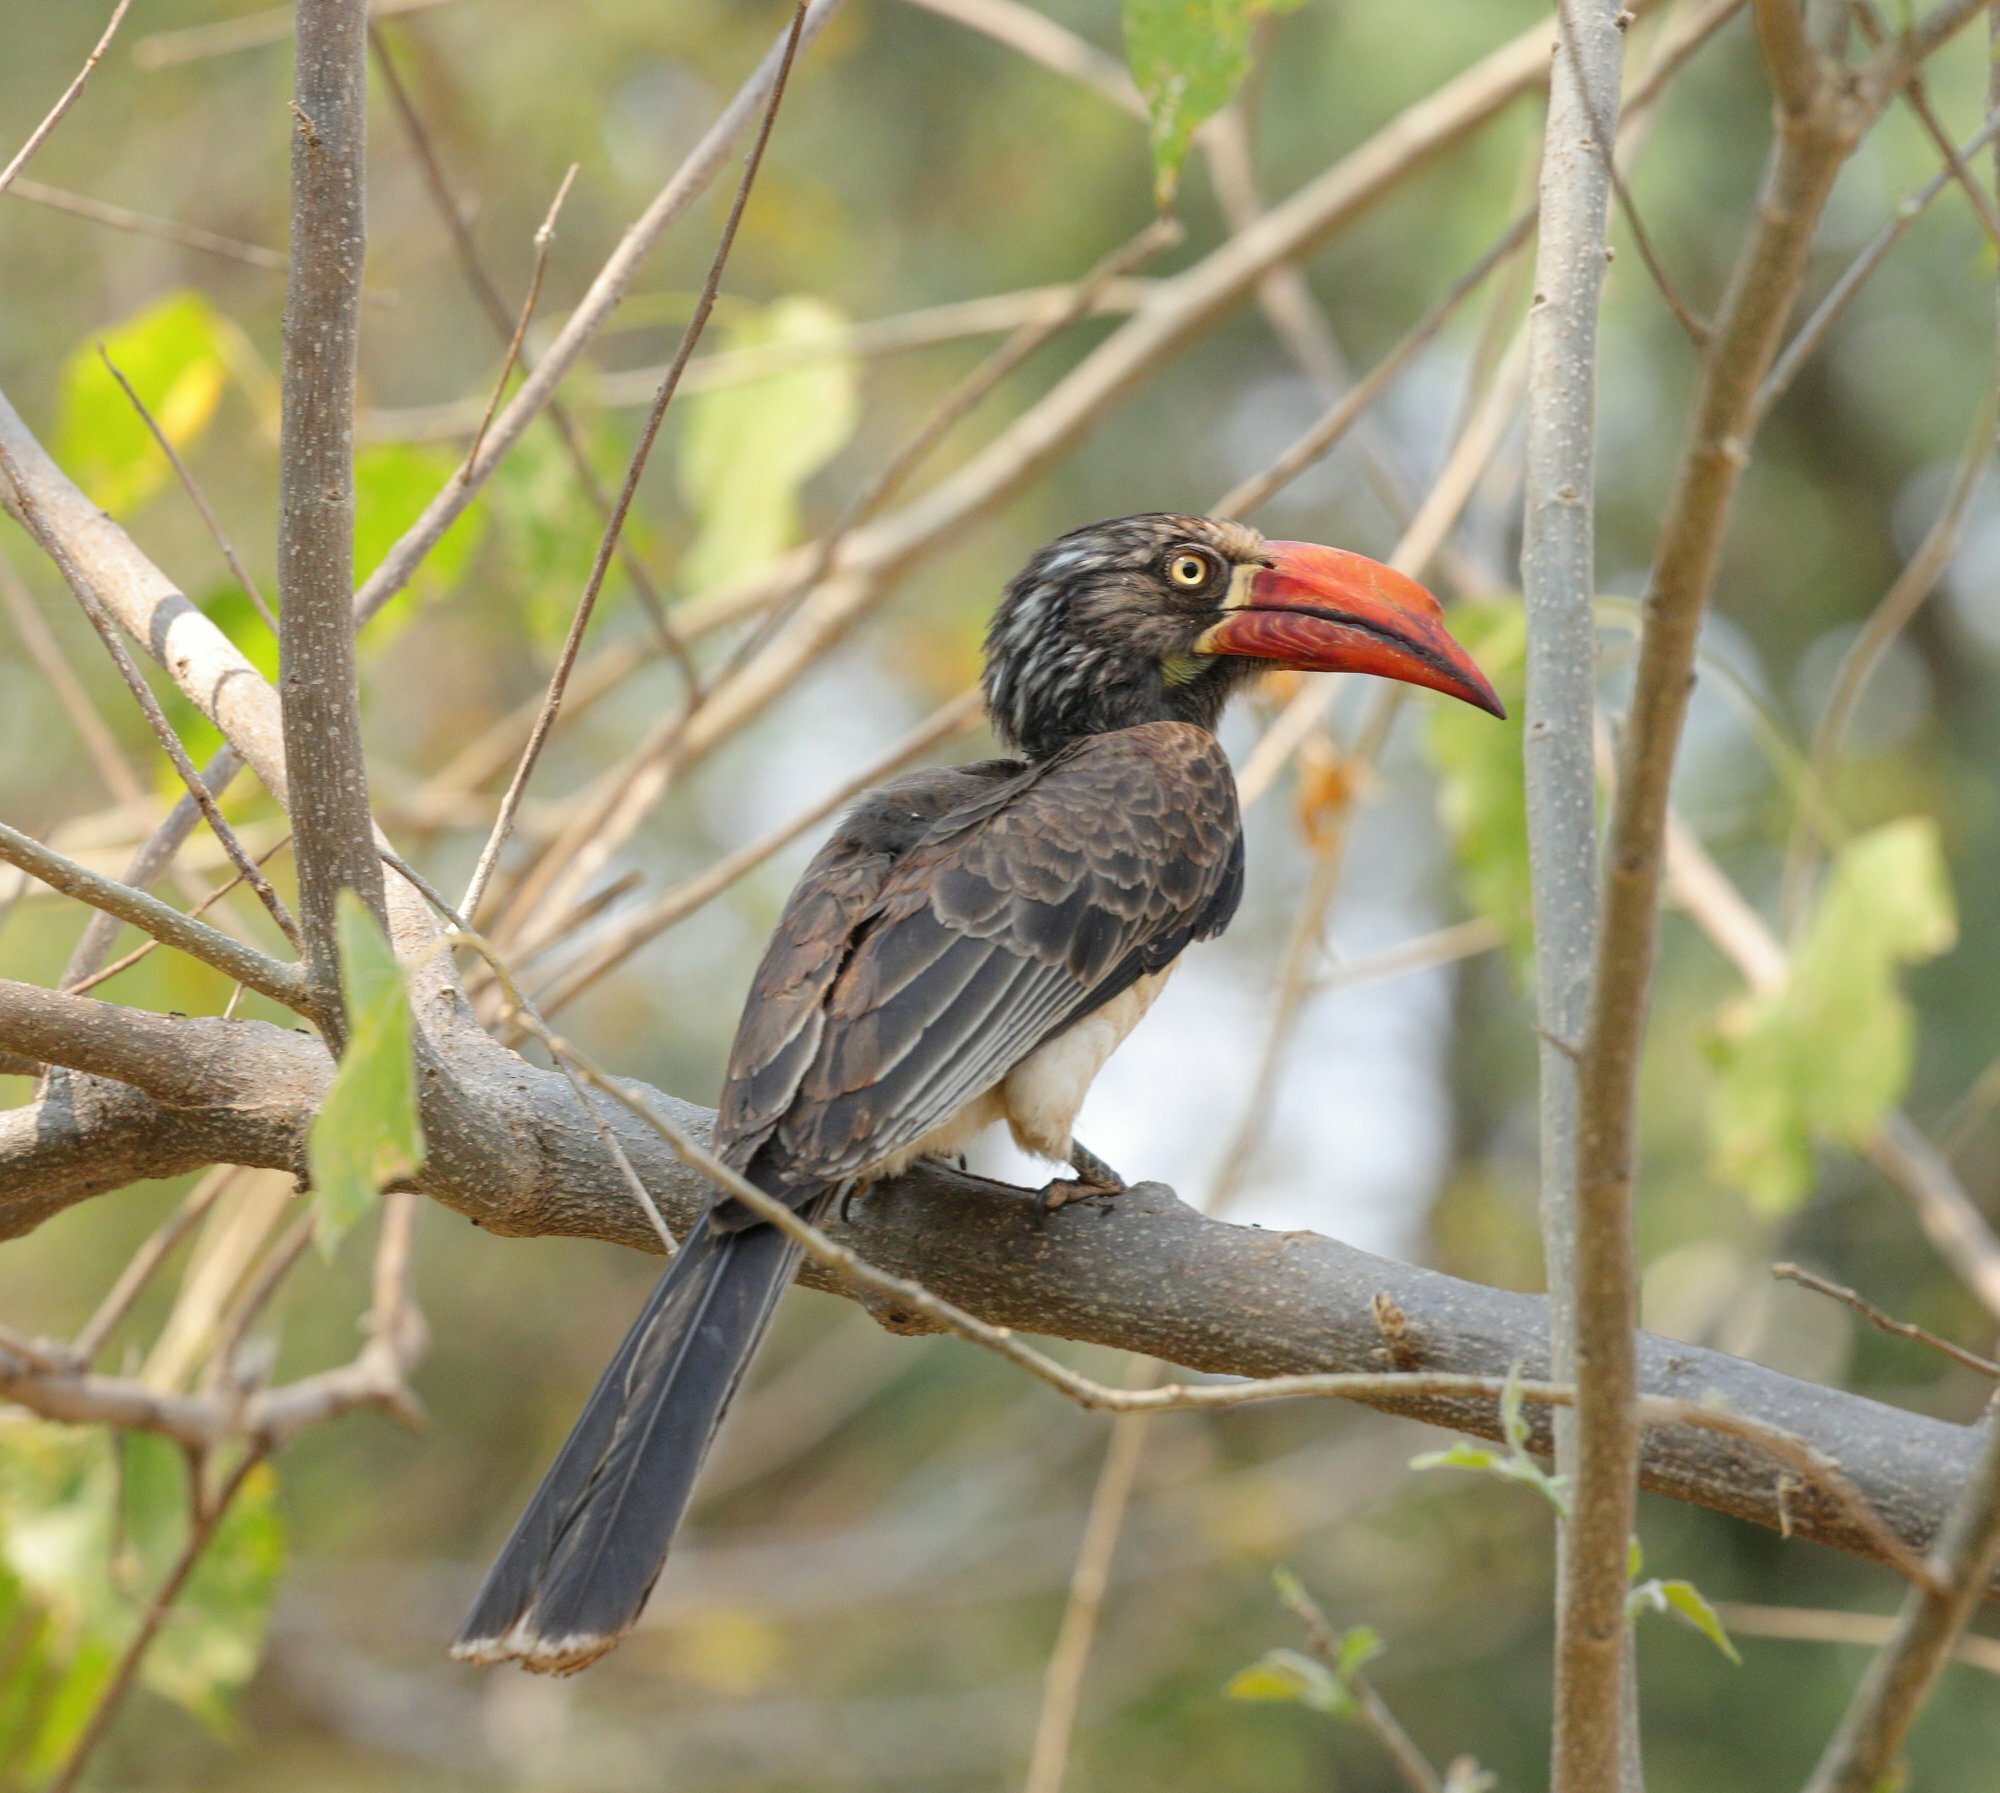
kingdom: Animalia
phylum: Chordata
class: Aves
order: Bucerotiformes
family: Bucerotidae
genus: Lophoceros
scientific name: Lophoceros alboterminatus
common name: Crowned hornbill
